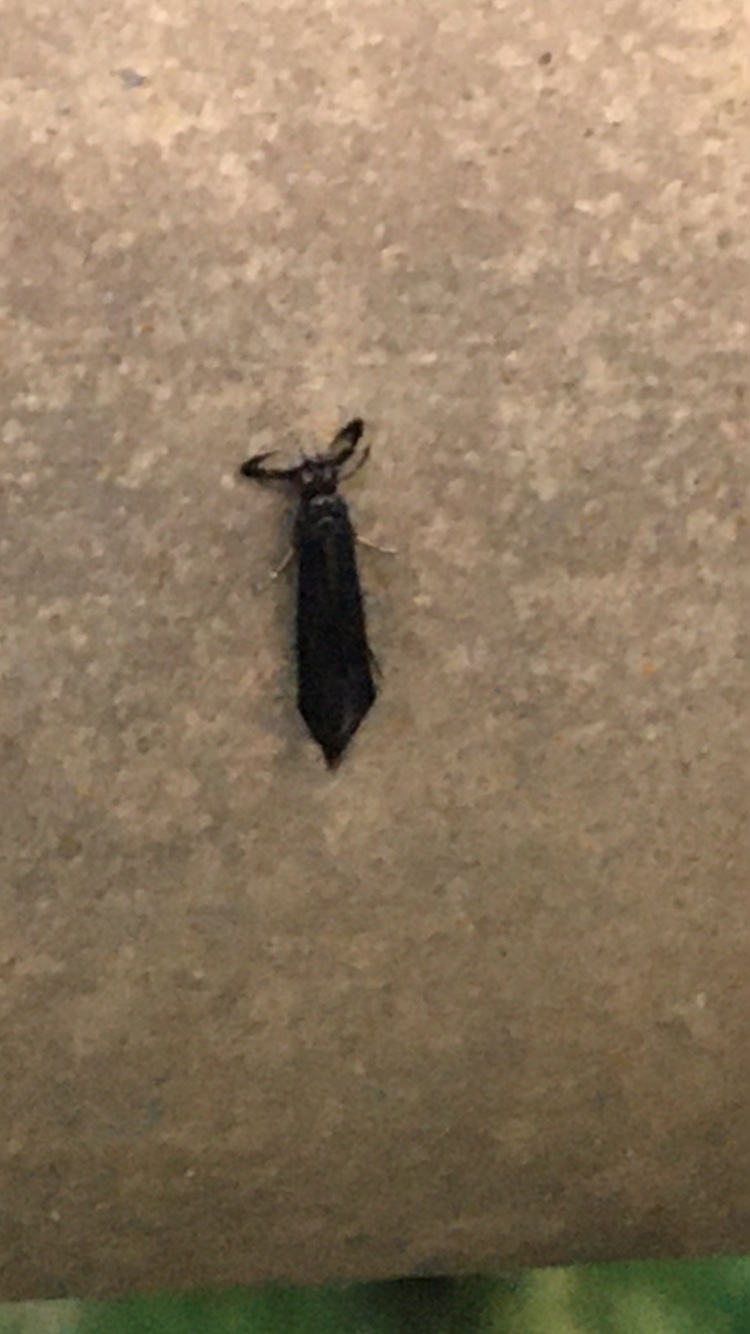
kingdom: Animalia
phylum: Arthropoda
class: Insecta
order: Trichoptera
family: Leptoceridae
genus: Mystacides
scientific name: Mystacides sepulchralis
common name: Black dancer caddisfly
